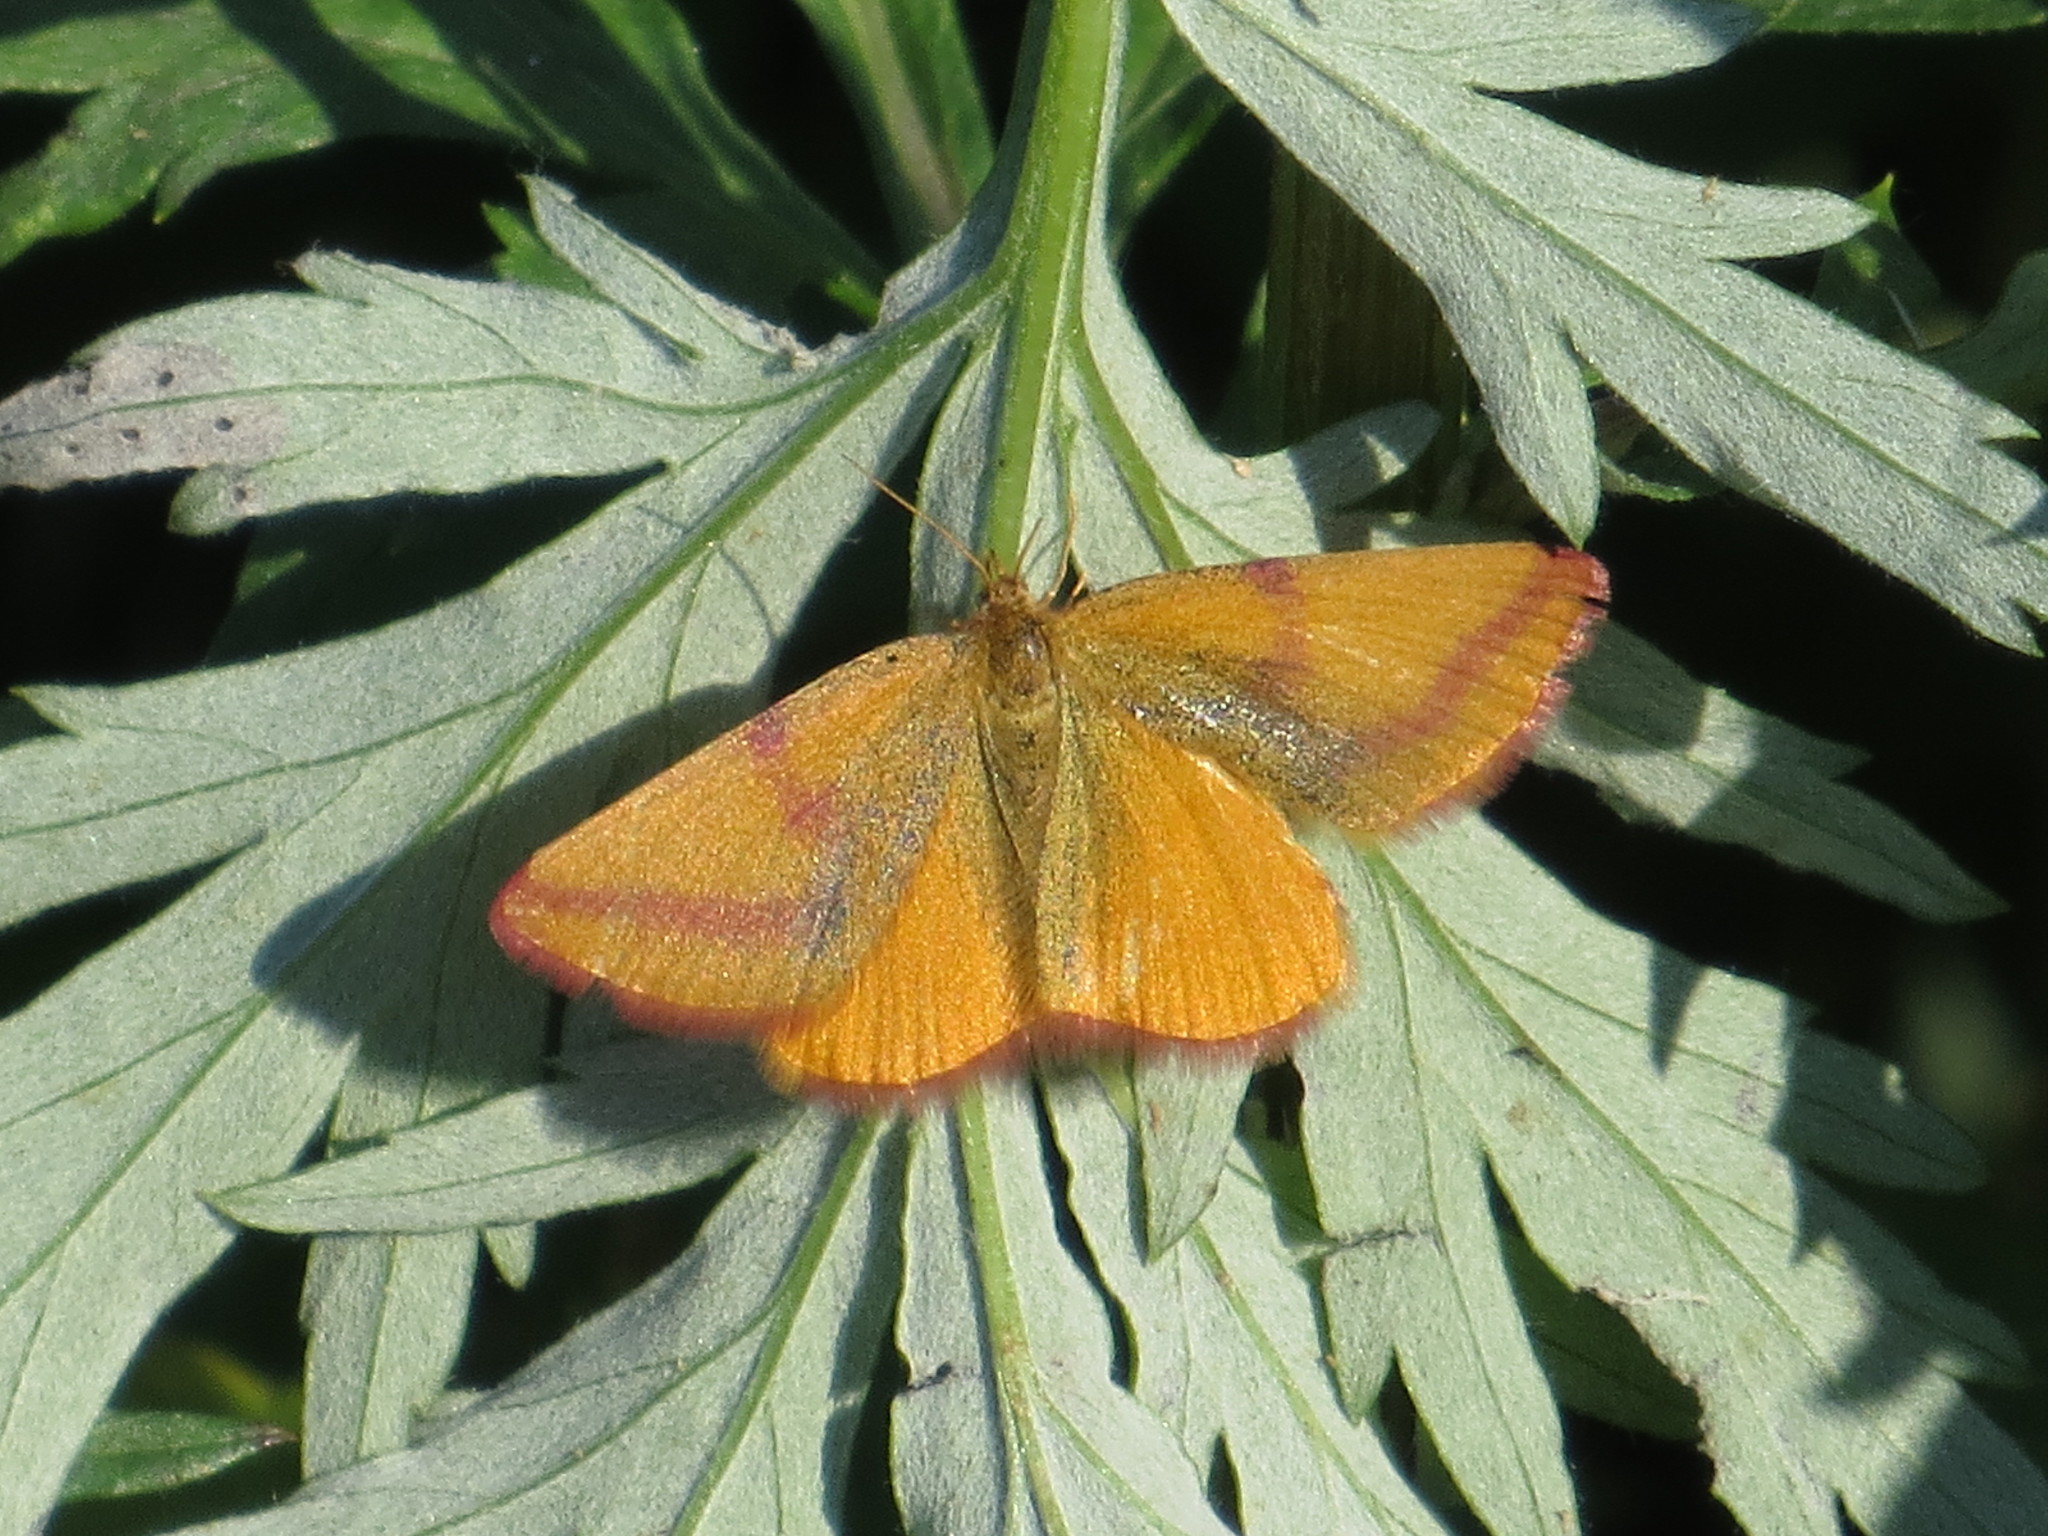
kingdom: Animalia
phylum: Arthropoda
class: Insecta
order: Lepidoptera
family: Geometridae
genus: Lythria
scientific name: Lythria purpuraria
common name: Purple-barred yellow
